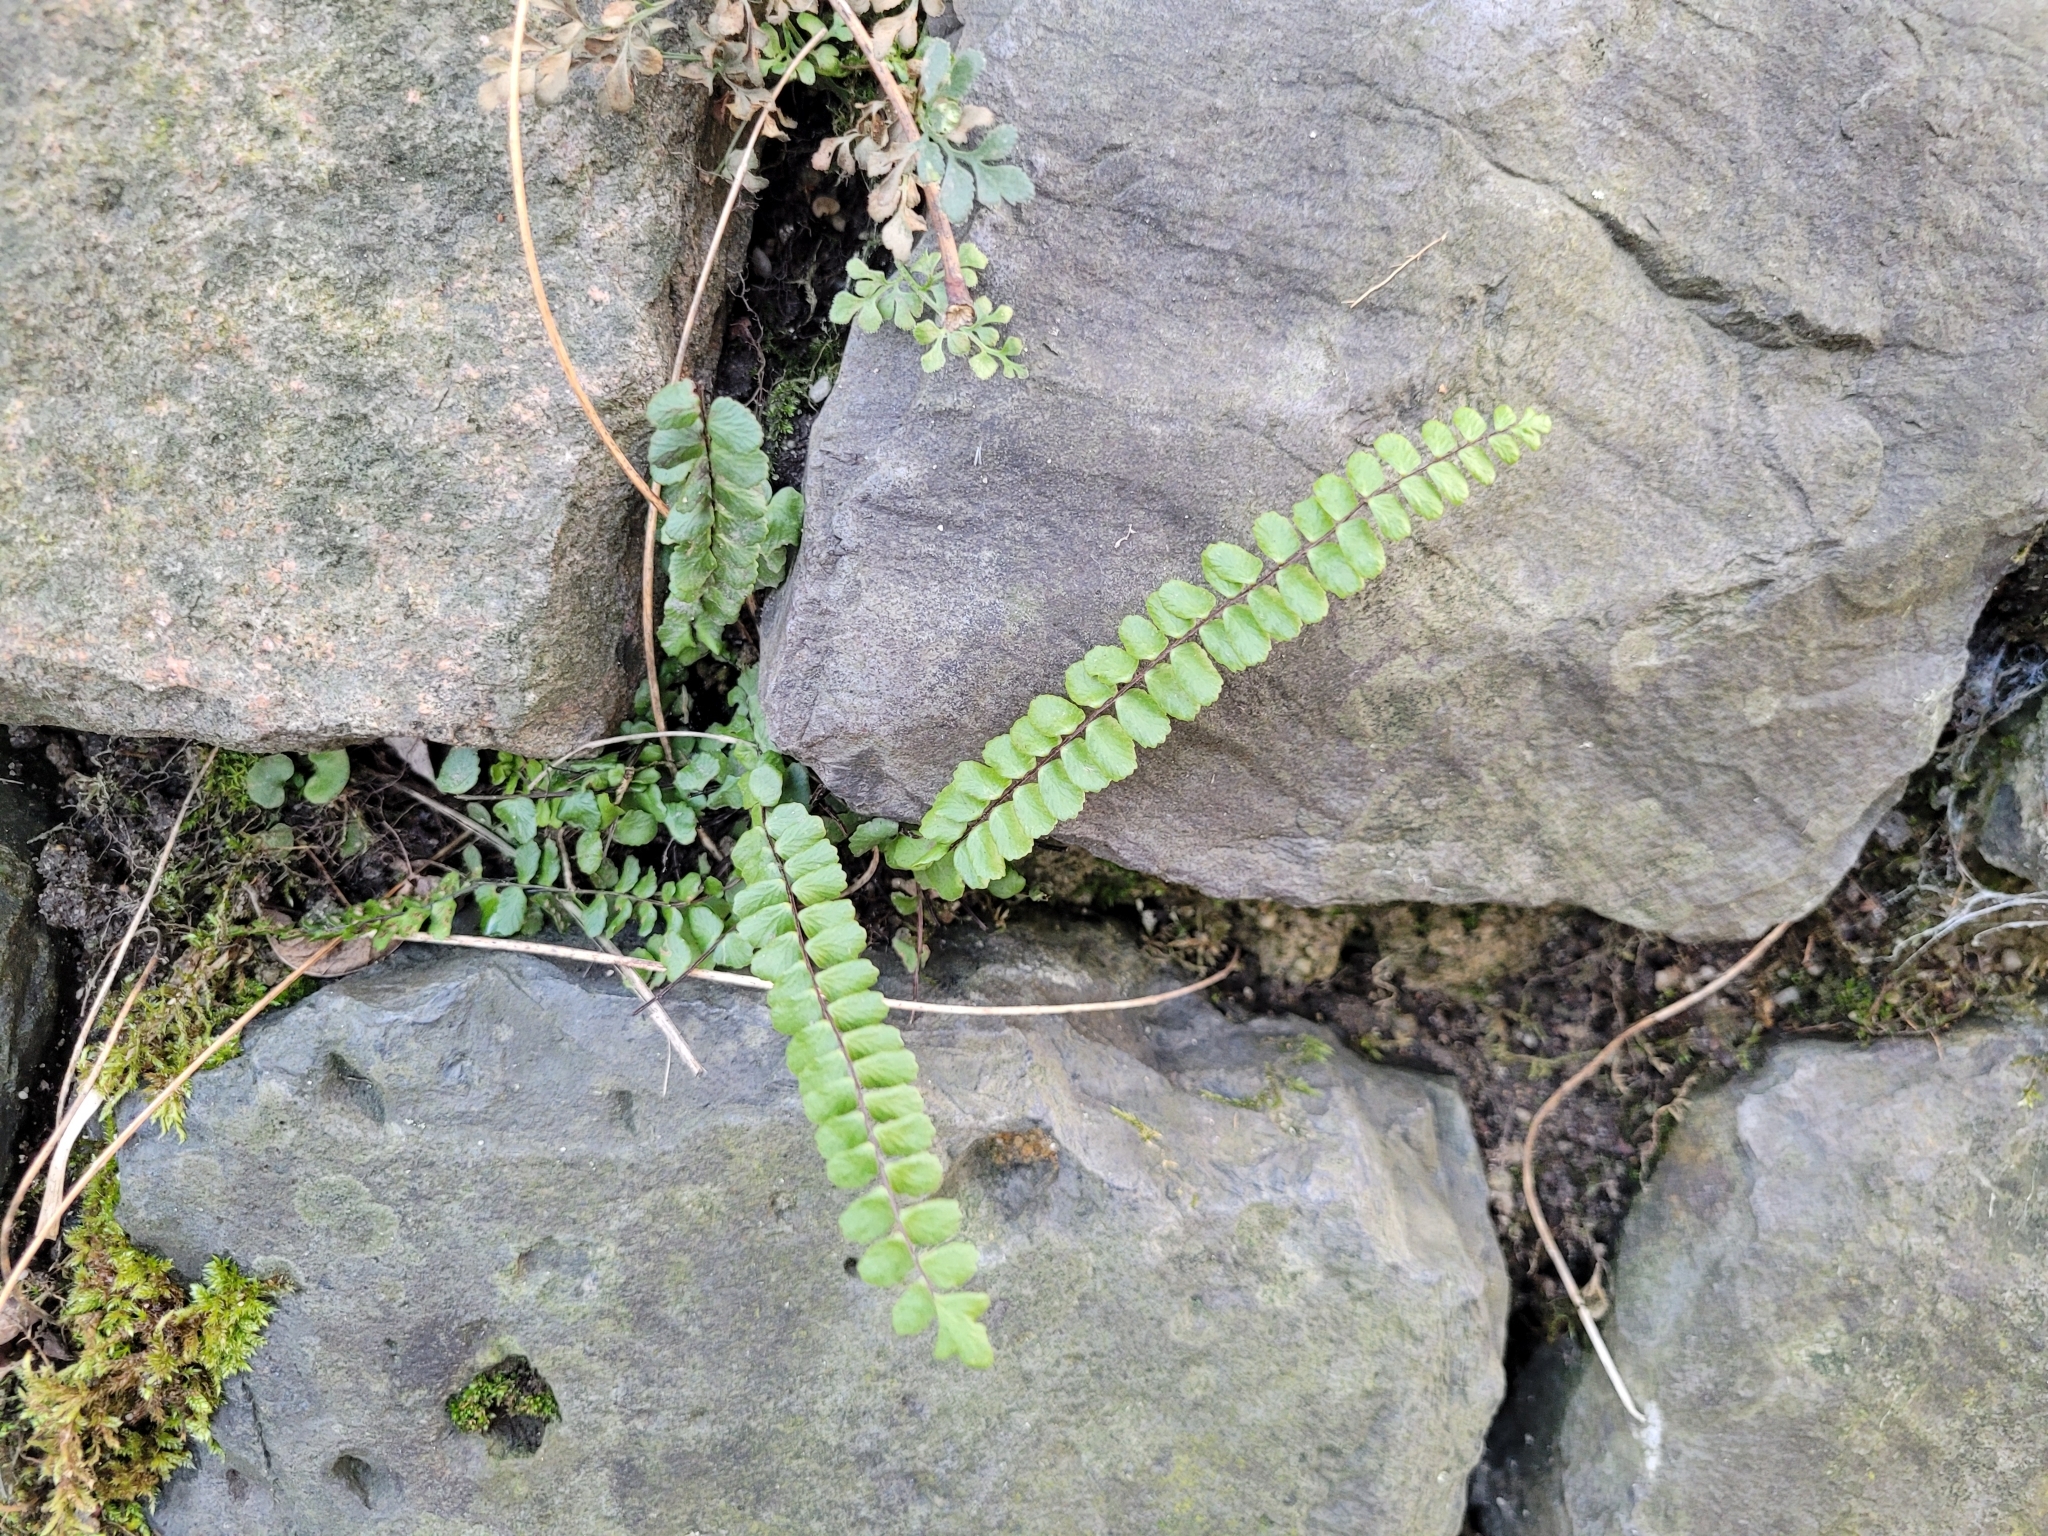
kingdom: Plantae
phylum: Tracheophyta
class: Polypodiopsida
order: Polypodiales
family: Aspleniaceae
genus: Asplenium
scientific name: Asplenium trichomanes
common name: Maidenhair spleenwort
